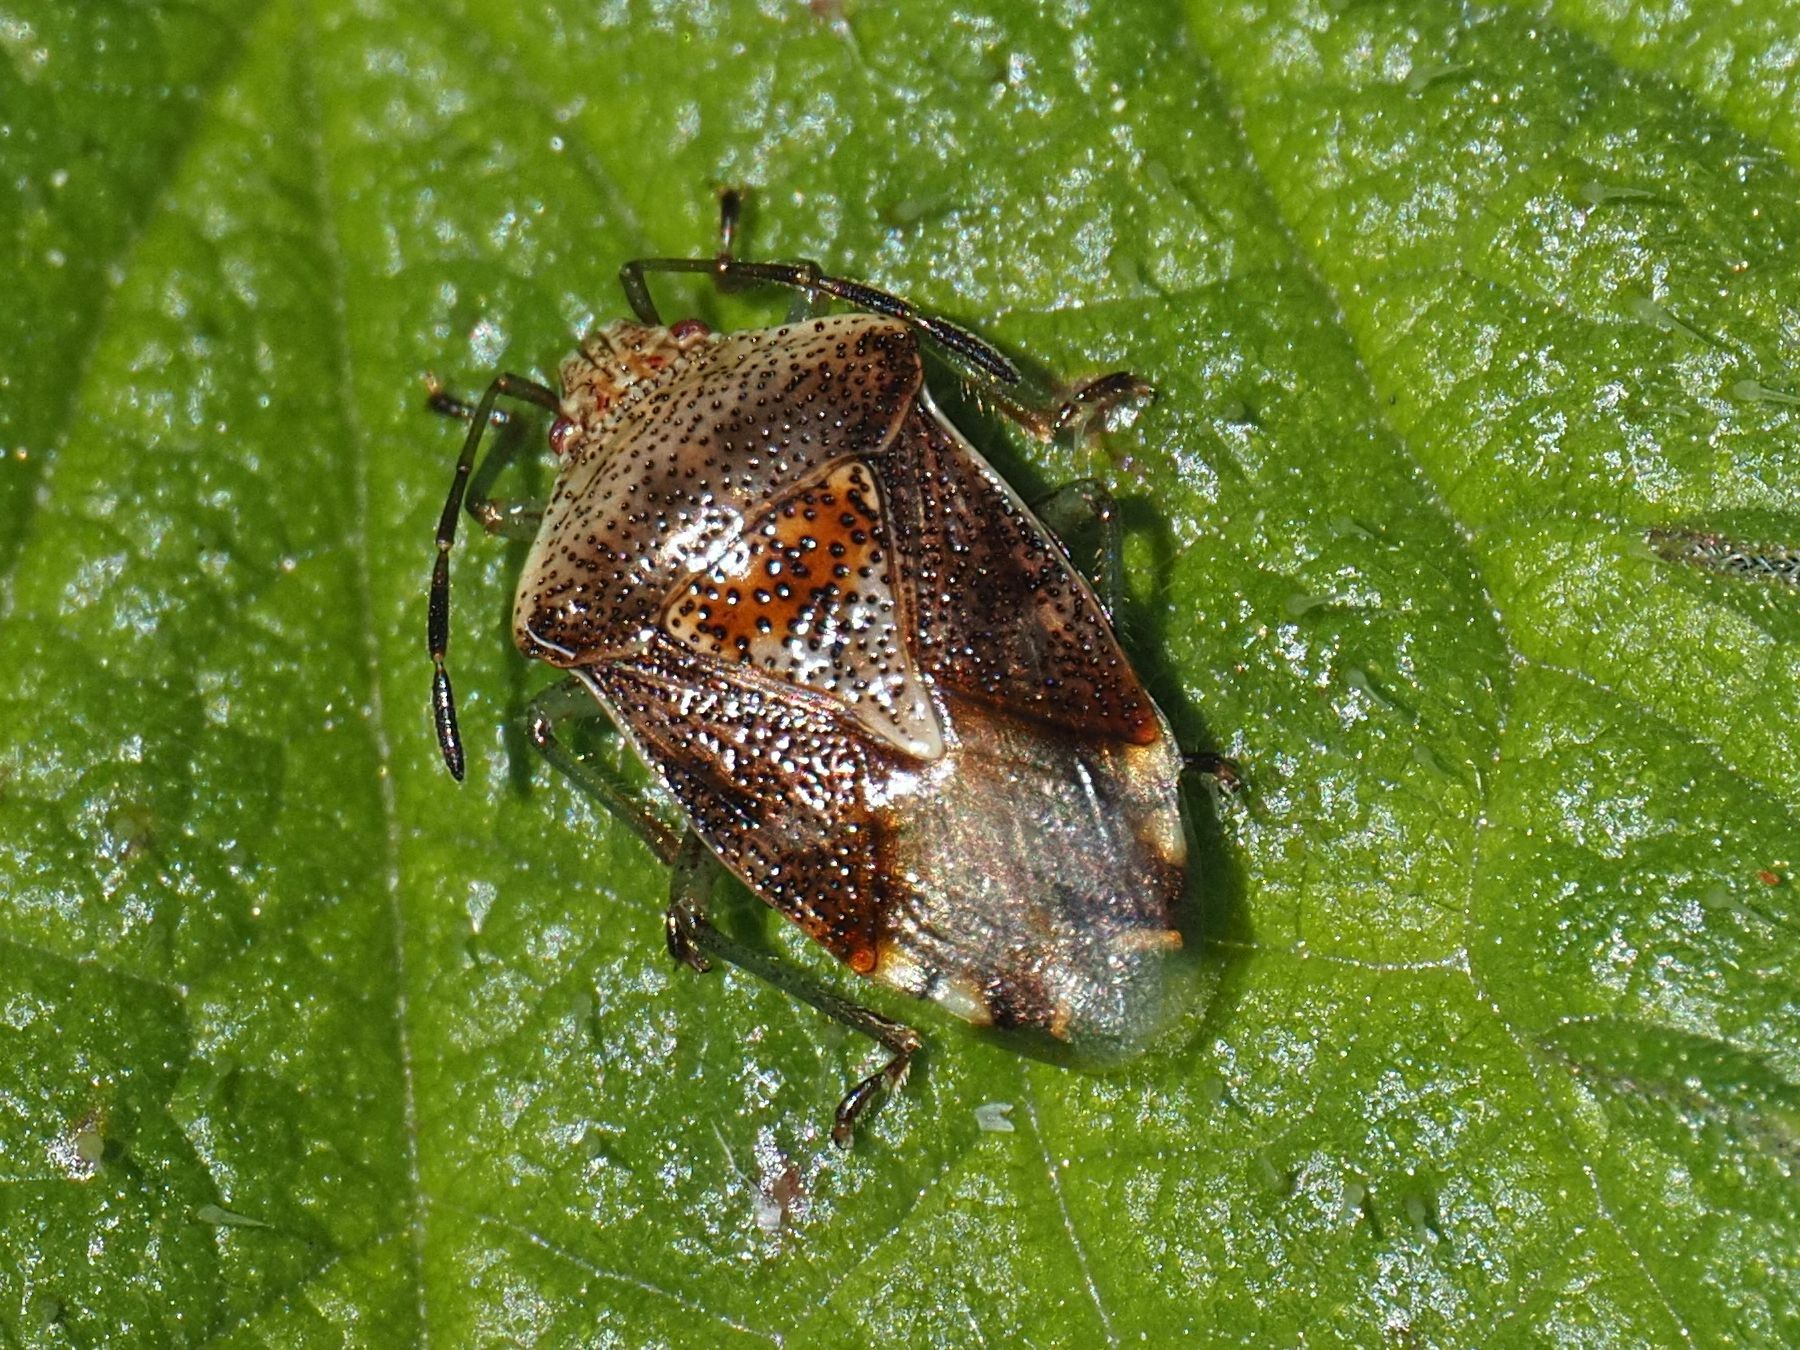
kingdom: Animalia
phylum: Arthropoda
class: Insecta
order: Hemiptera
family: Acanthosomatidae
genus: Elasmucha
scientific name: Elasmucha grisea
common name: Parent bug
